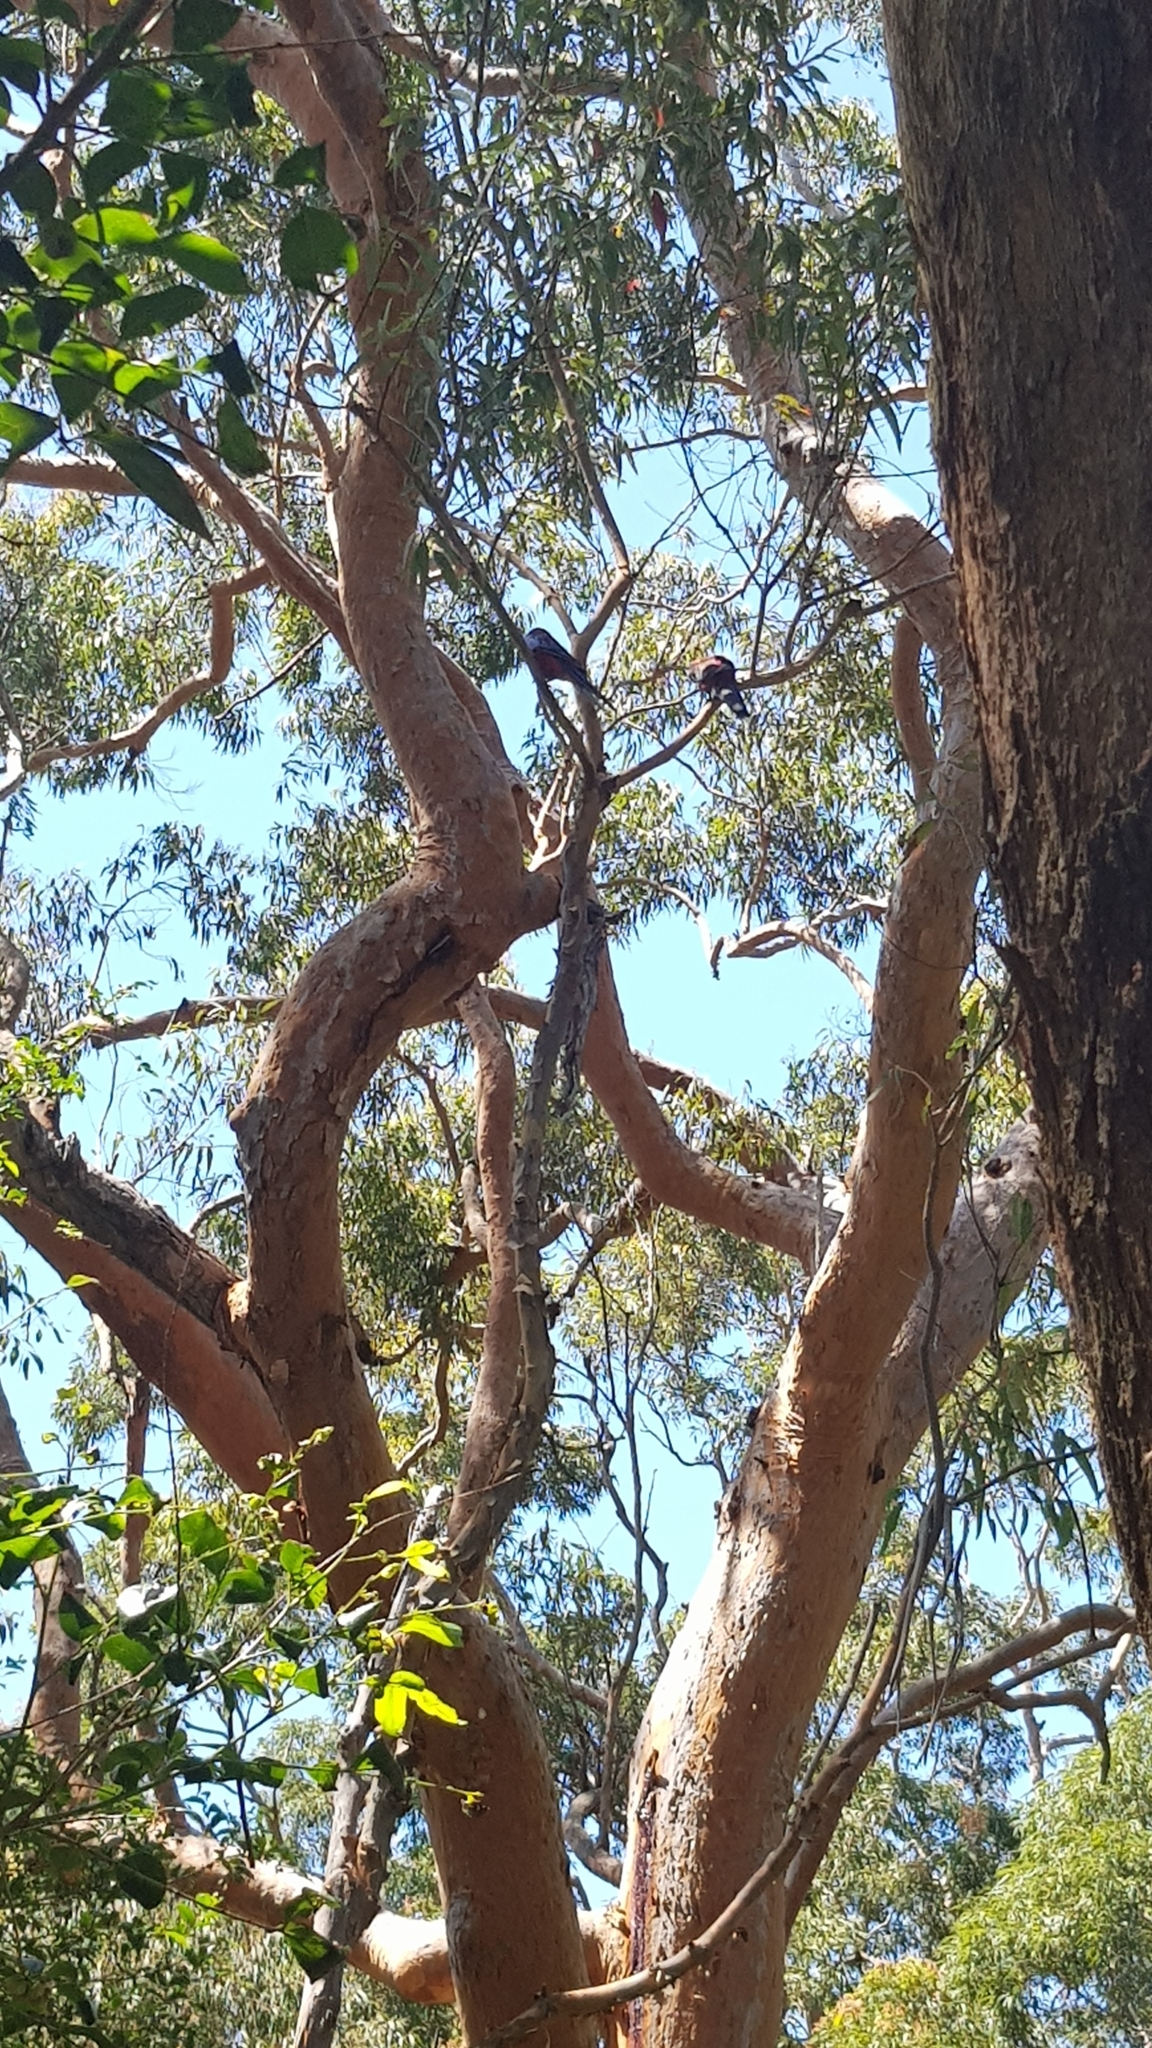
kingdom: Animalia
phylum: Chordata
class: Aves
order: Psittaciformes
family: Psittacidae
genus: Platycercus
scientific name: Platycercus elegans
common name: Crimson rosella
